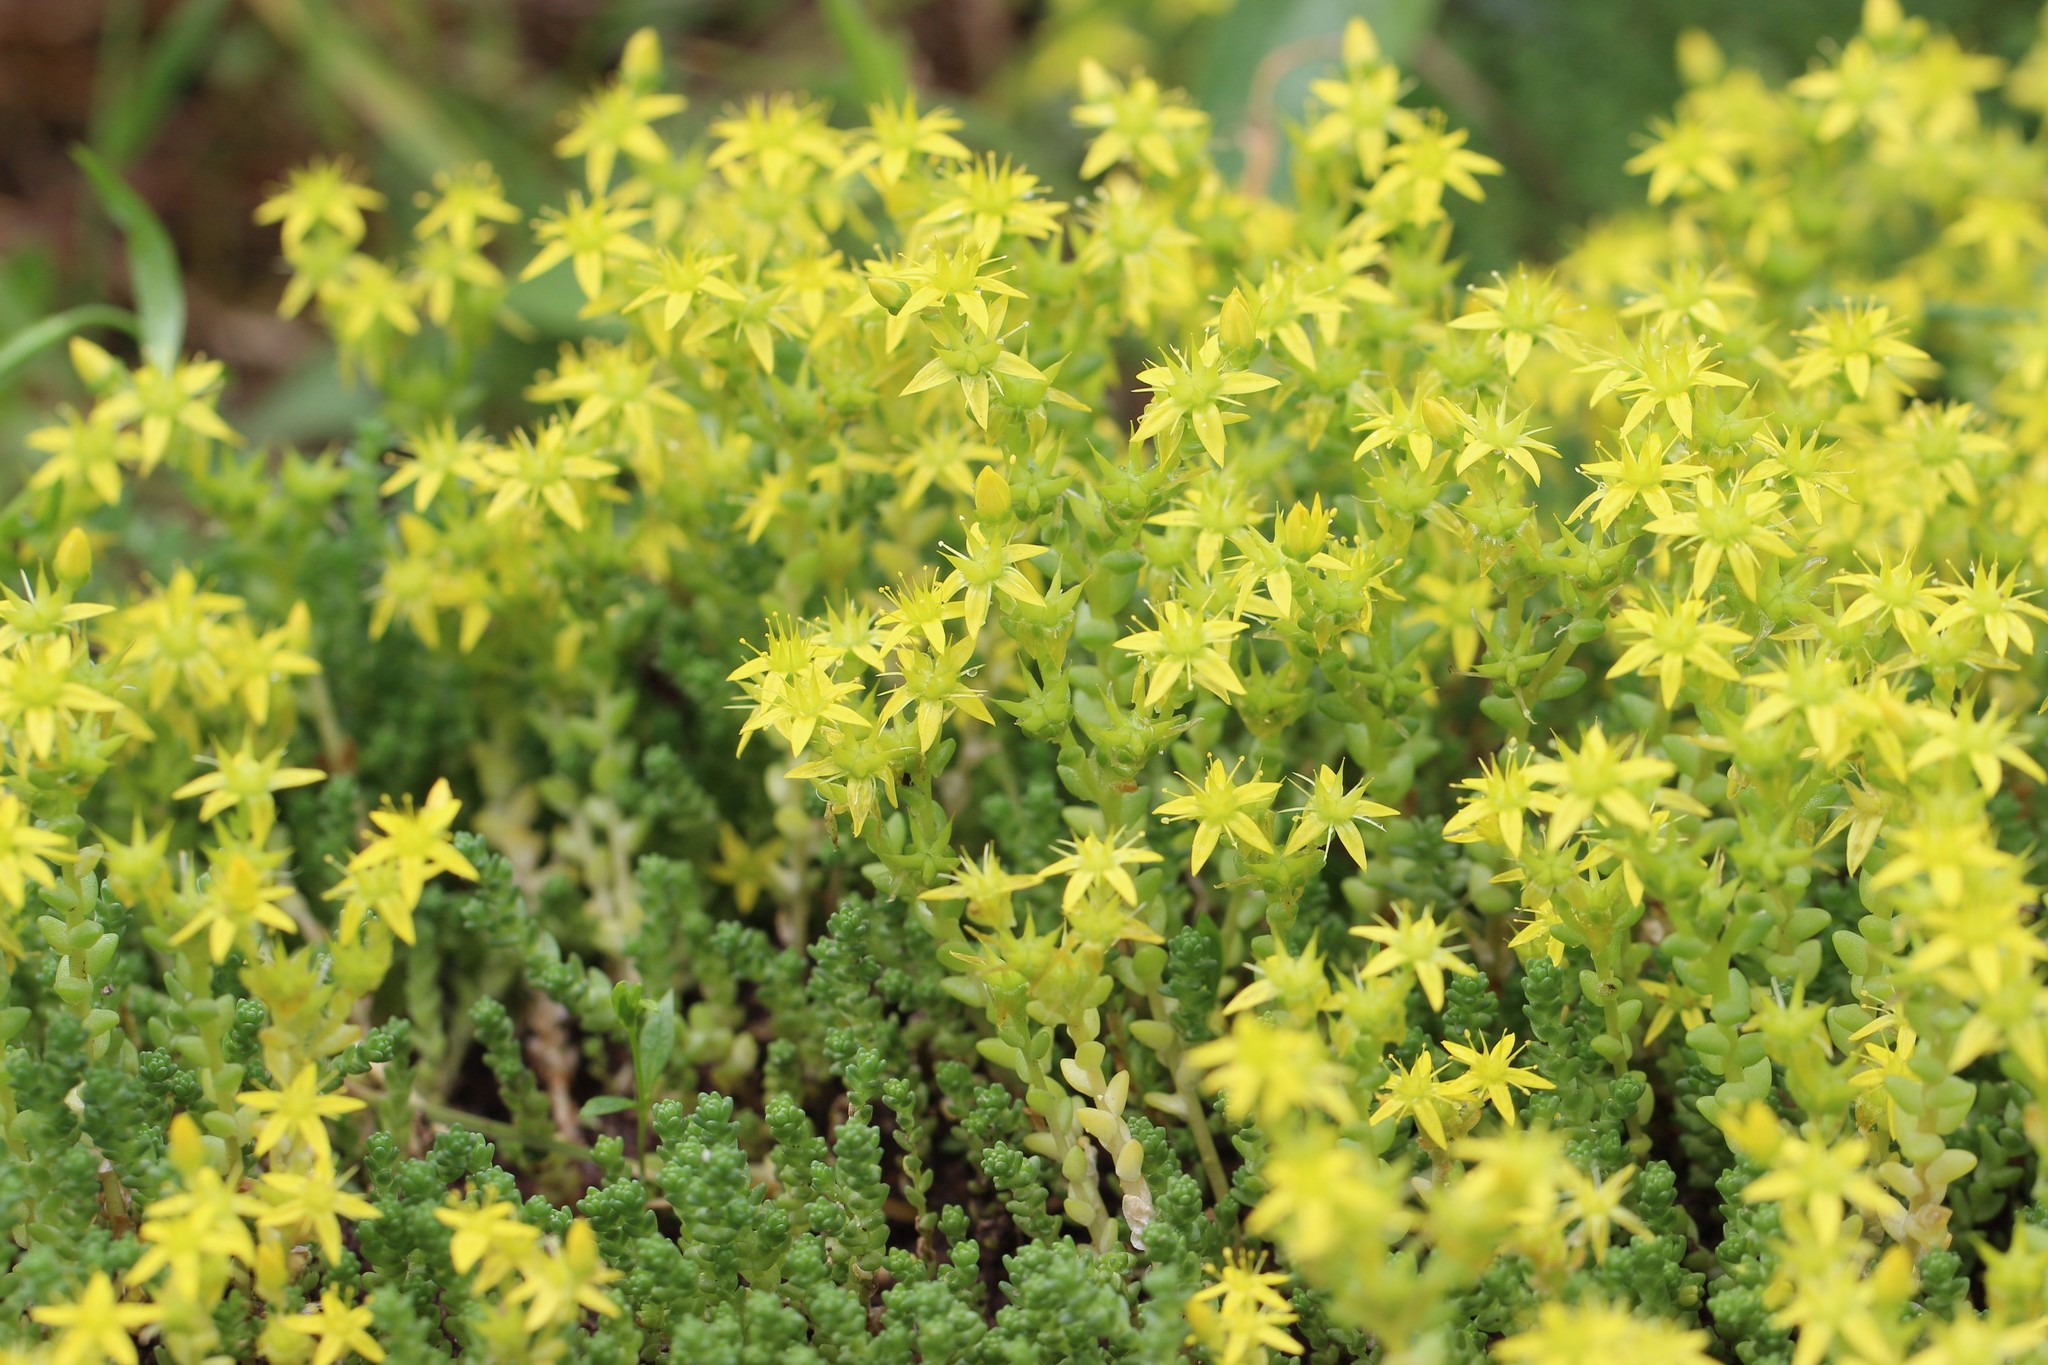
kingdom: Plantae
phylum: Tracheophyta
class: Magnoliopsida
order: Saxifragales
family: Crassulaceae
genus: Sedum
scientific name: Sedum acre
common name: Biting stonecrop
